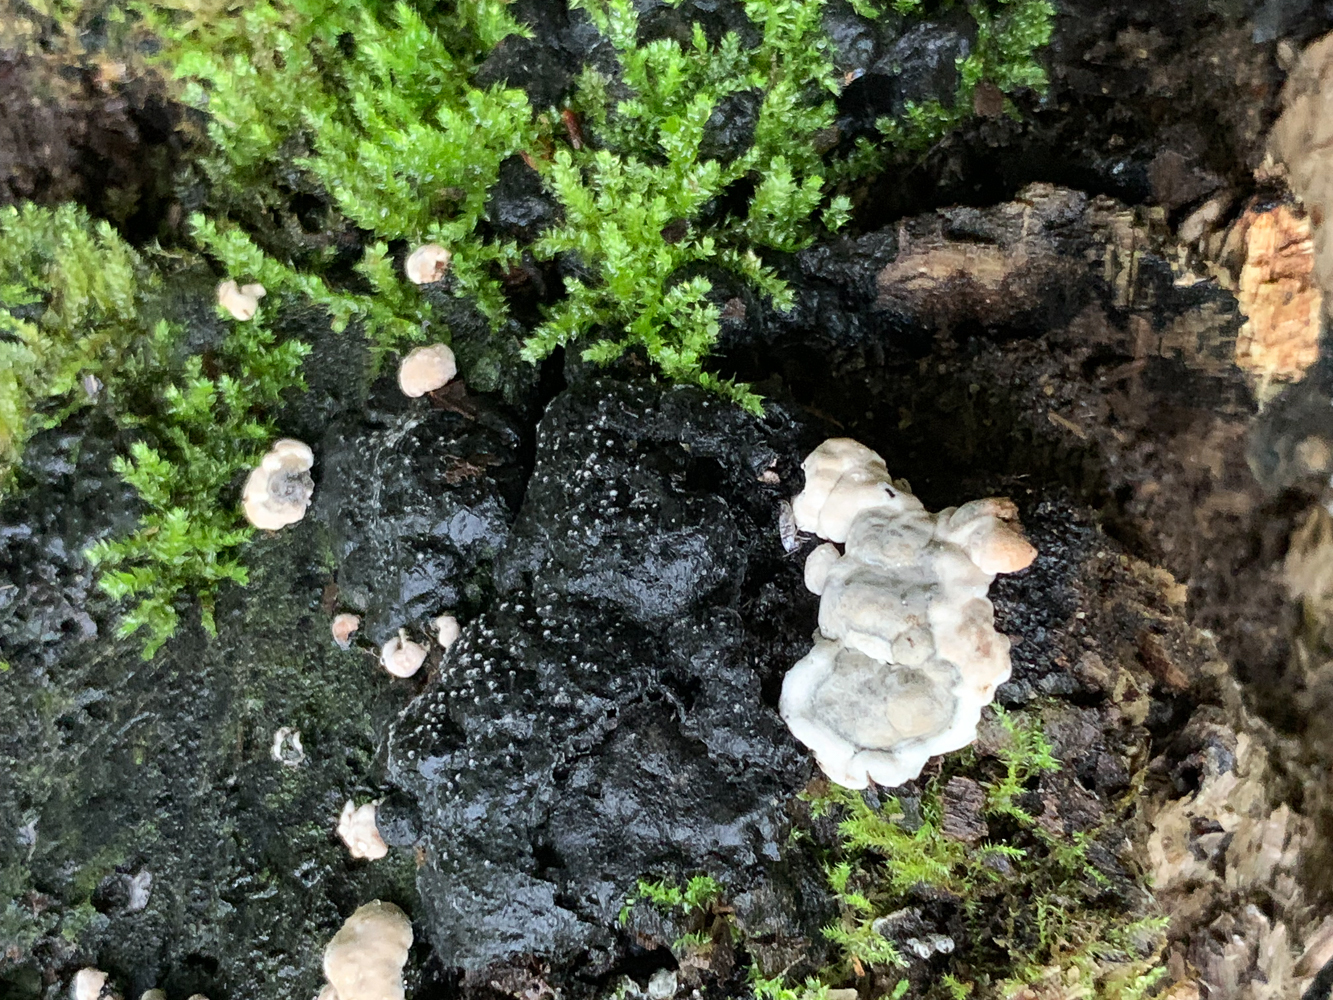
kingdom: Fungi
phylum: Ascomycota
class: Sordariomycetes
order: Xylariales
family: Xylariaceae
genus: Kretzschmaria
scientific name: Kretzschmaria deusta
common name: Brittle cinder
